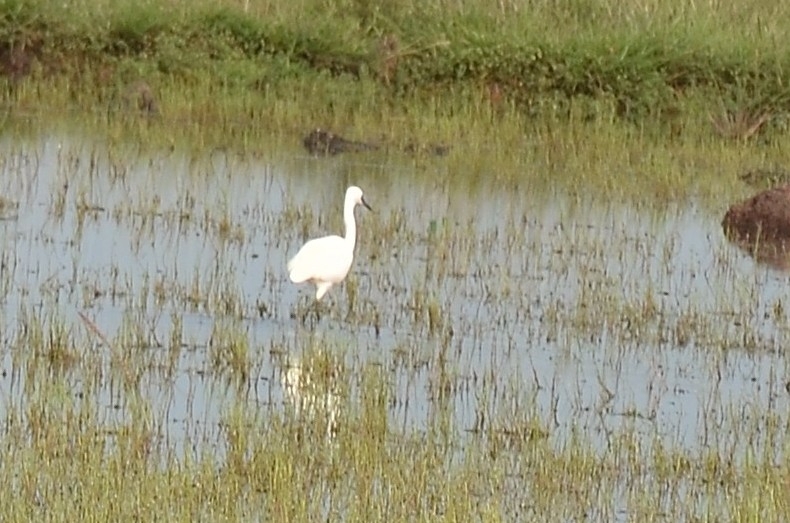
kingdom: Animalia
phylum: Chordata
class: Aves
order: Pelecaniformes
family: Ardeidae
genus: Egretta
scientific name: Egretta garzetta
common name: Little egret
